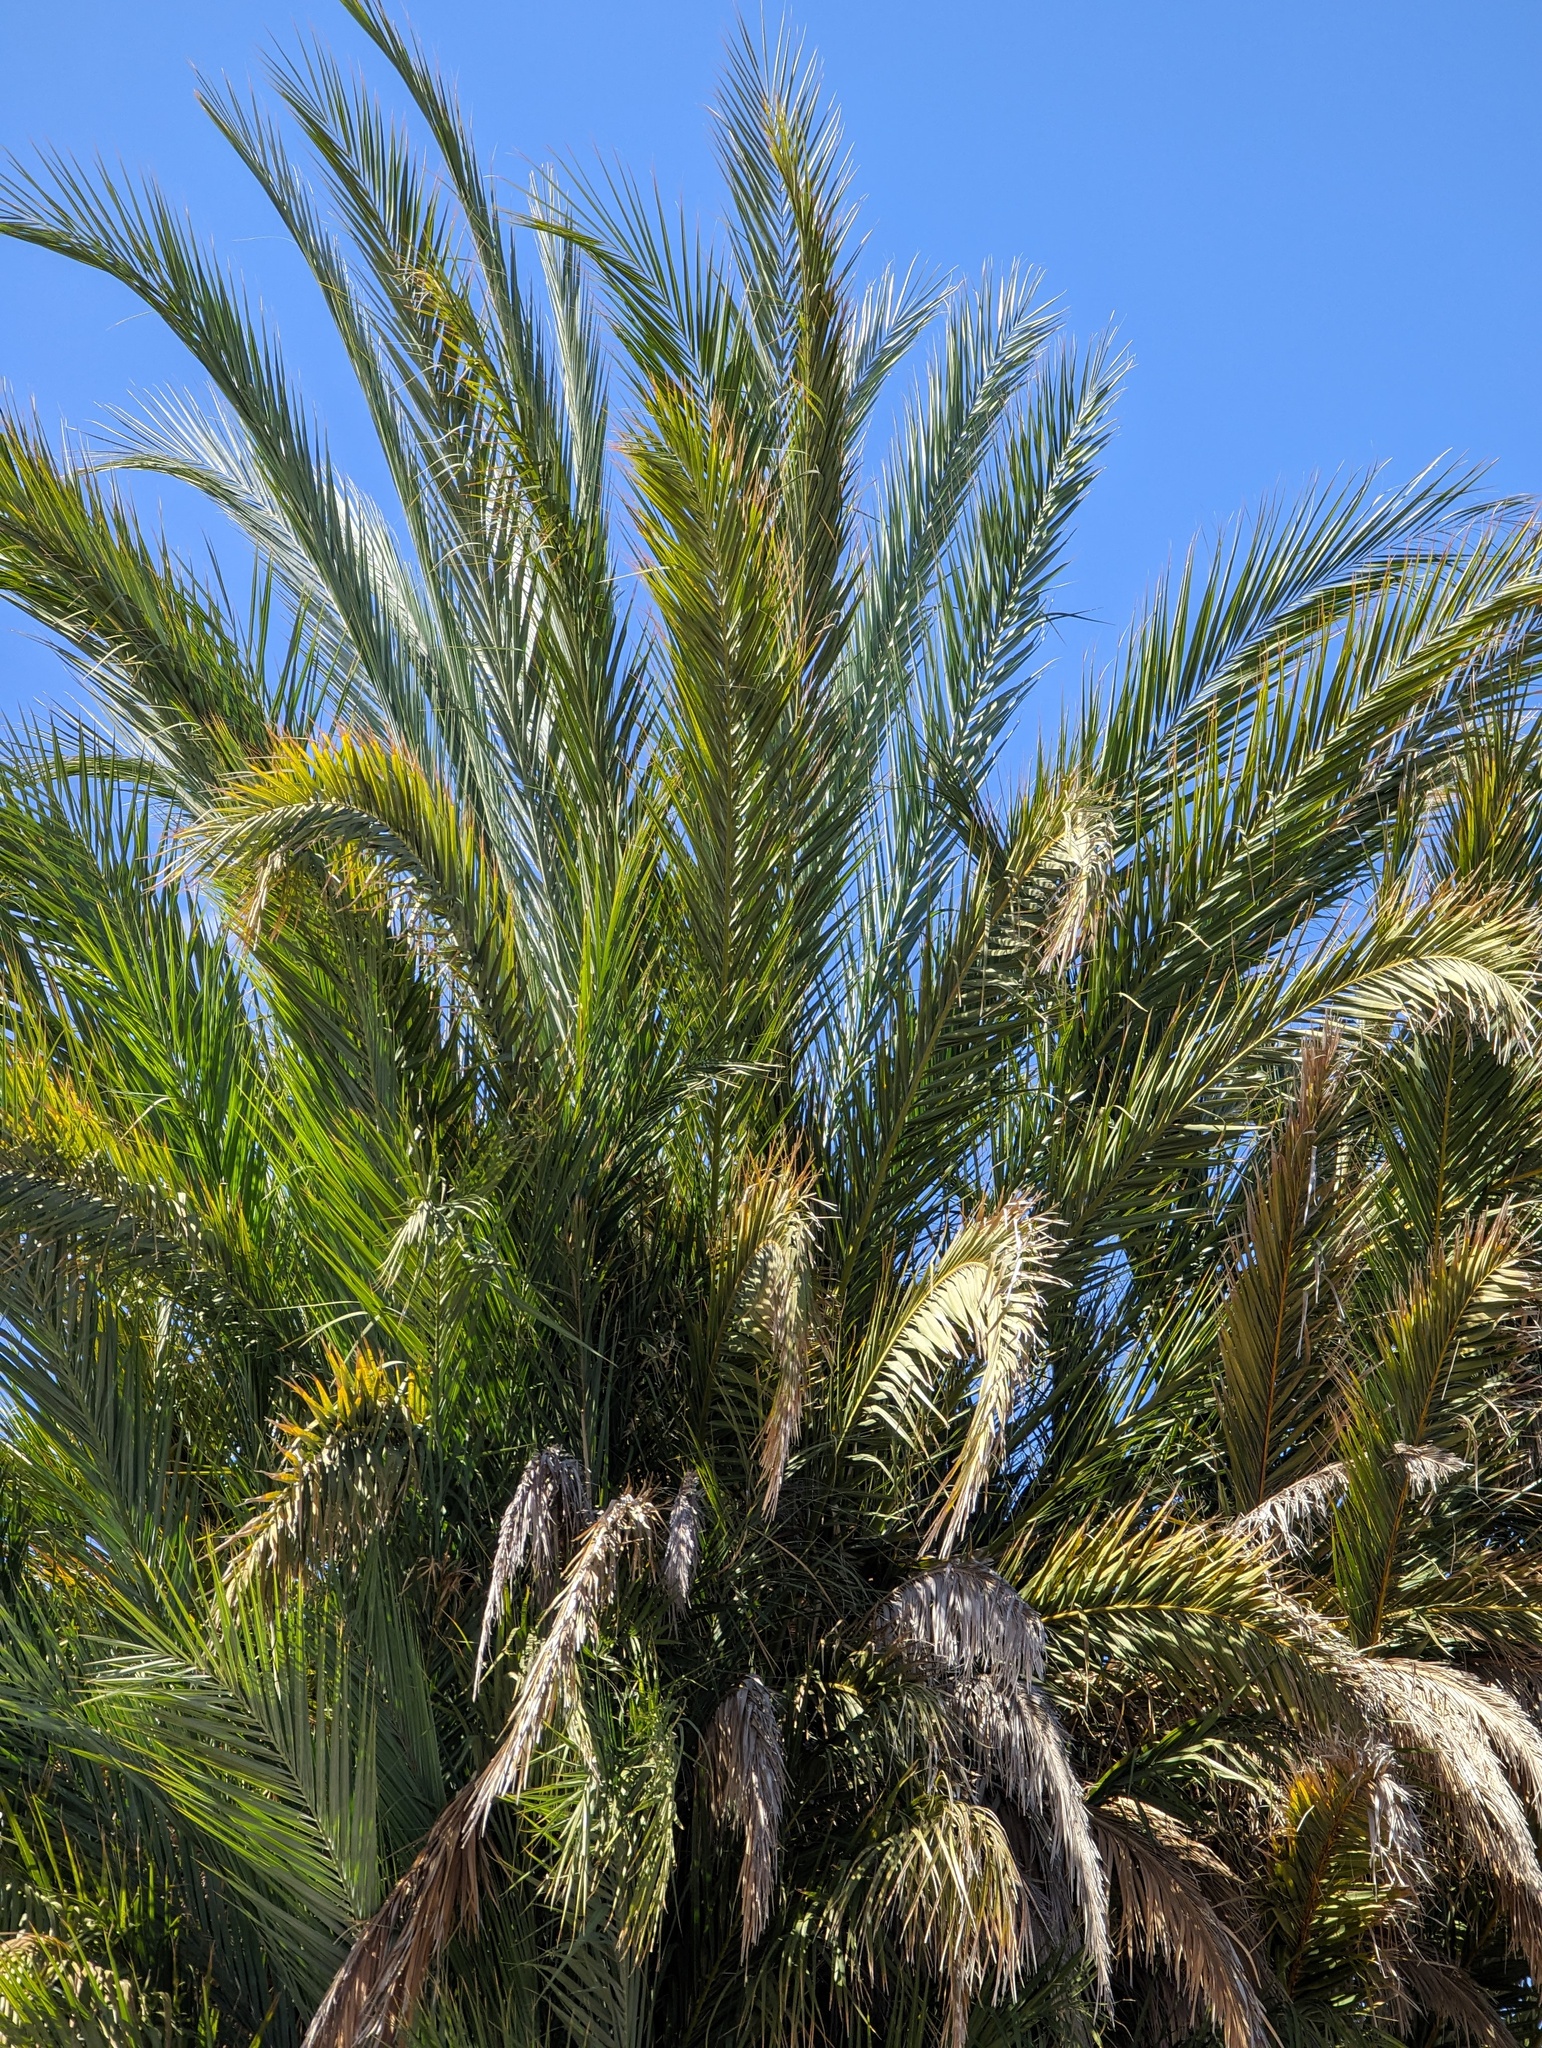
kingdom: Plantae
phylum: Tracheophyta
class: Liliopsida
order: Arecales
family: Arecaceae
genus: Phoenix
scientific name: Phoenix dactylifera
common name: Date palm
